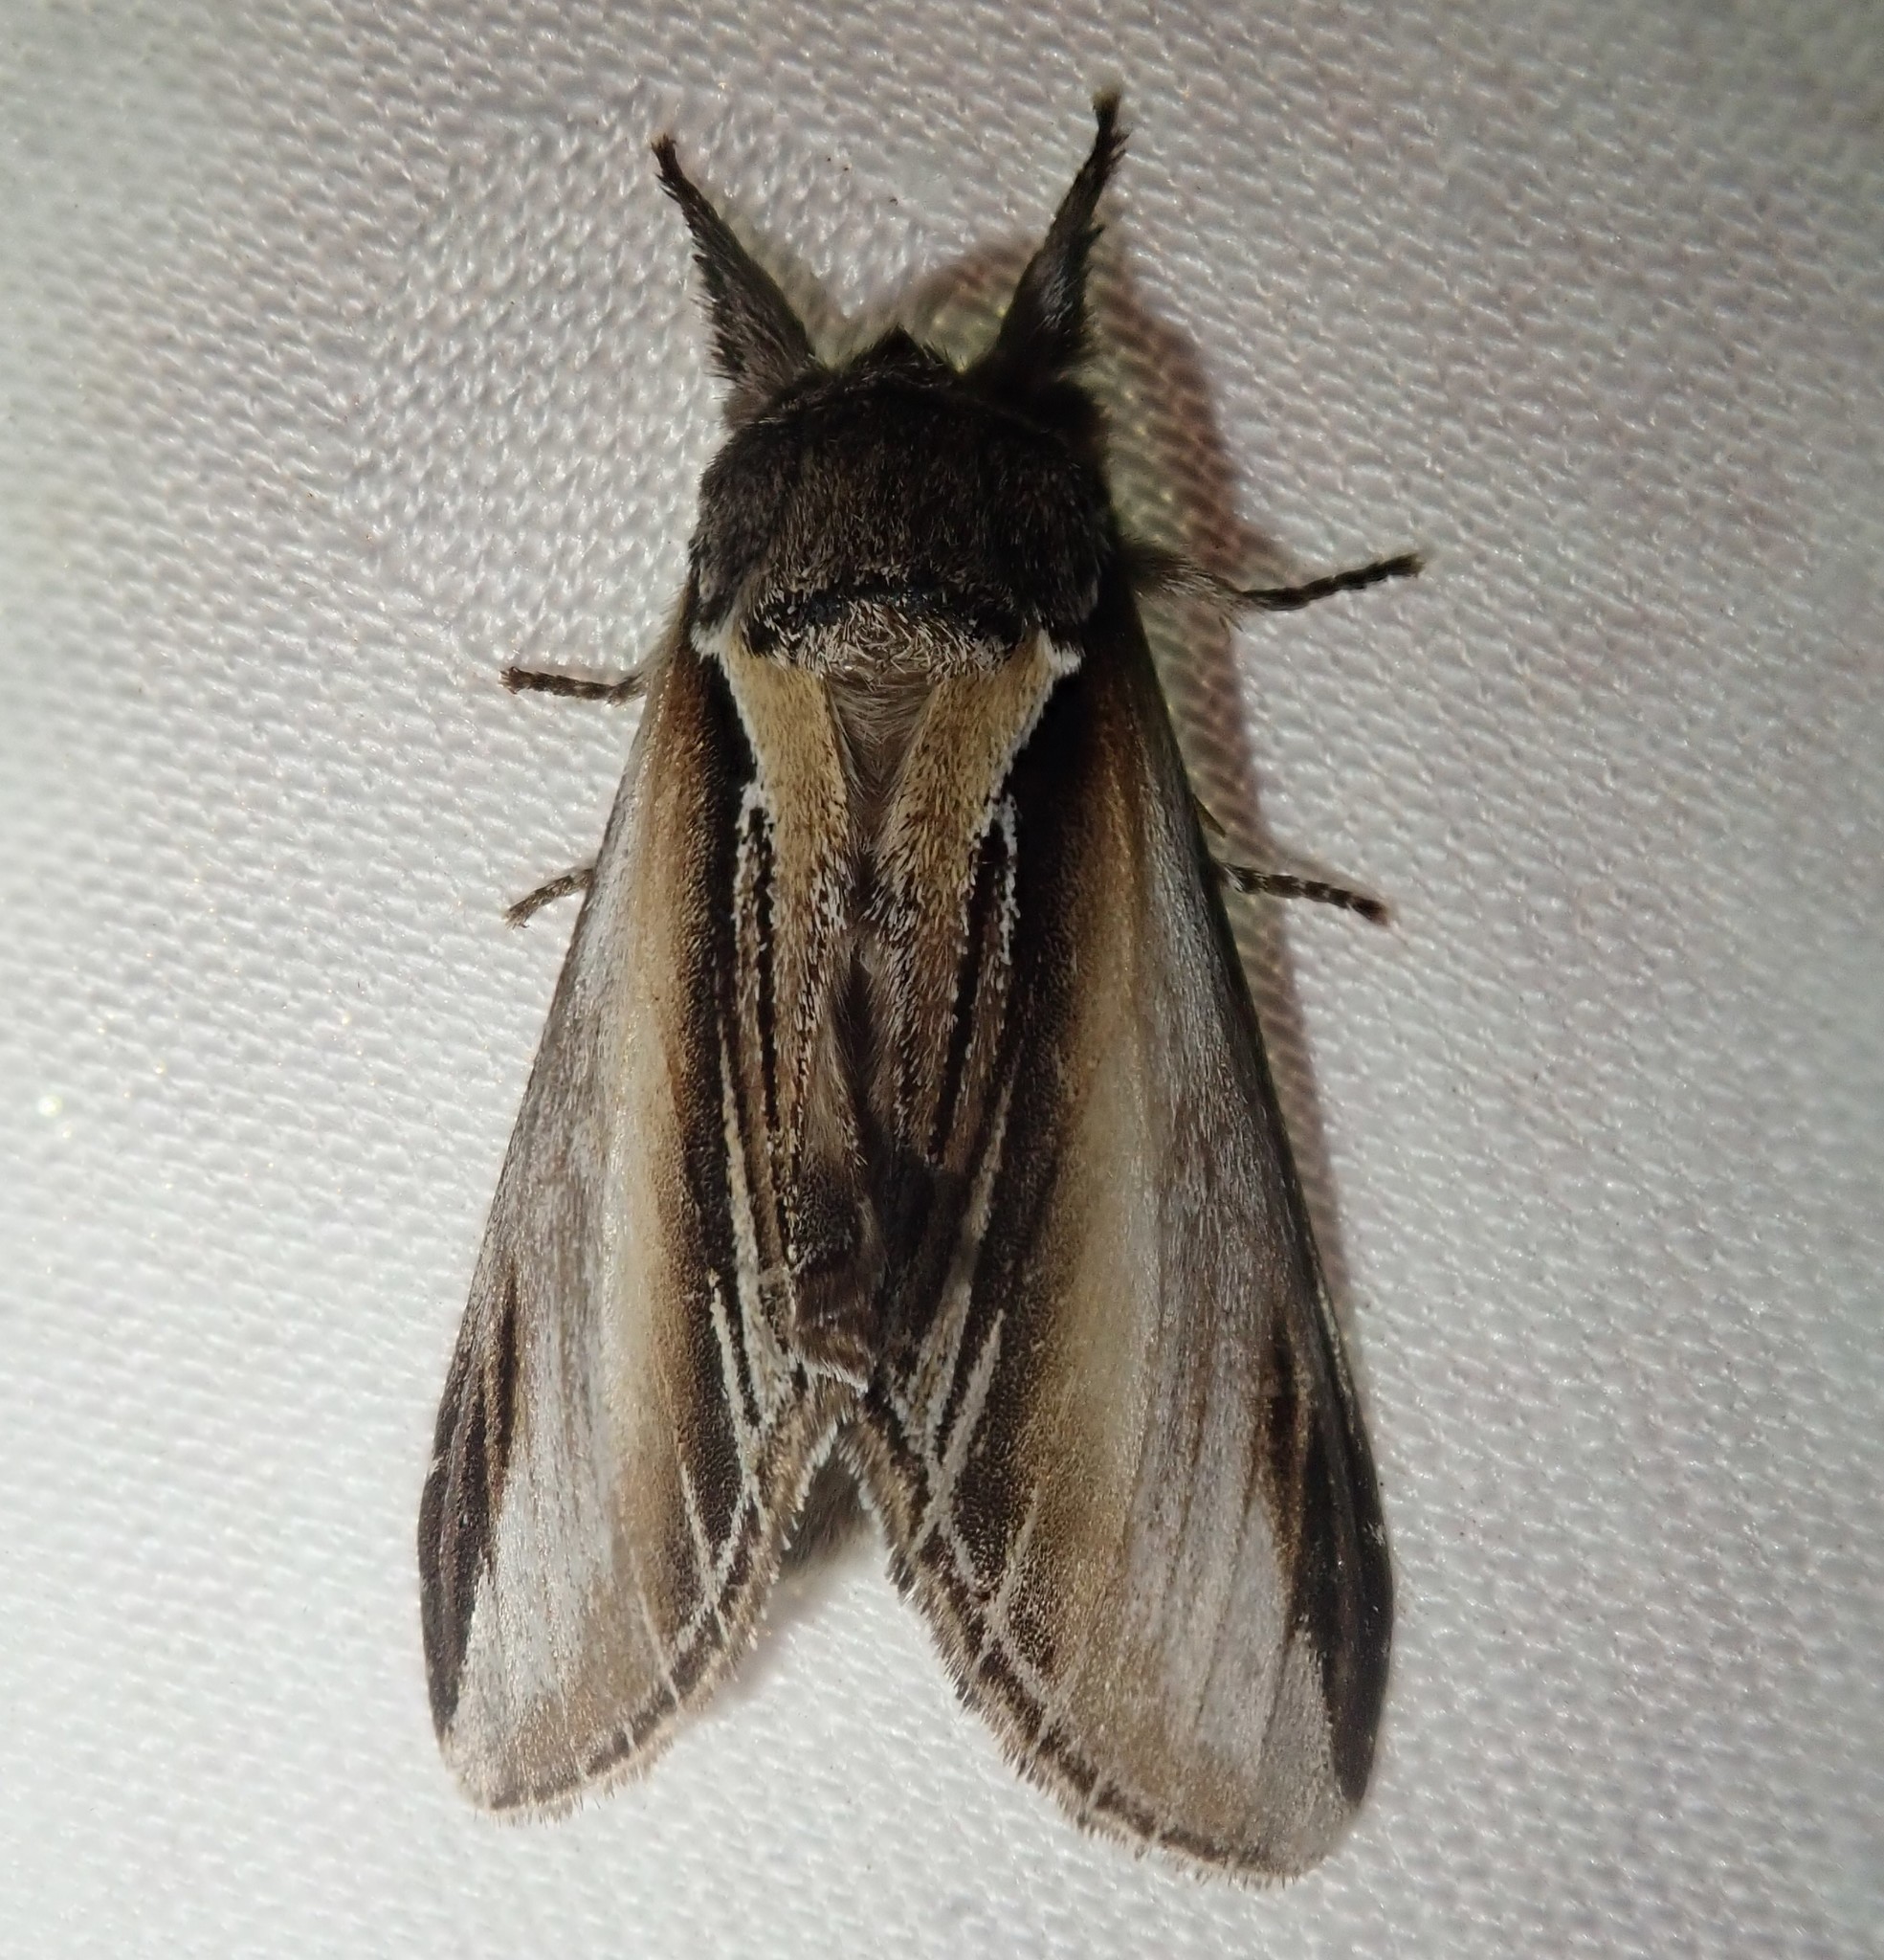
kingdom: Animalia
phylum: Arthropoda
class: Insecta
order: Lepidoptera
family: Notodontidae
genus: Pheosia
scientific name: Pheosia tremula
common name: Swallow prominent
